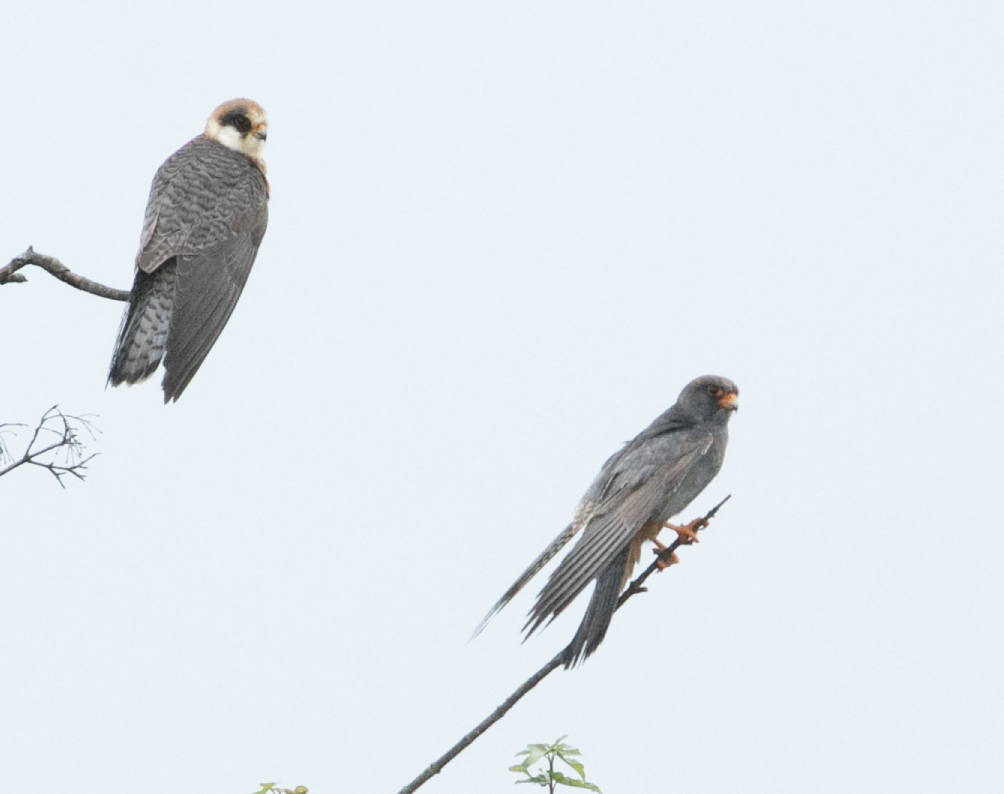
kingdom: Animalia
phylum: Chordata
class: Aves
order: Falconiformes
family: Falconidae
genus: Falco
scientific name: Falco vespertinus
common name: Red-footed falcon
